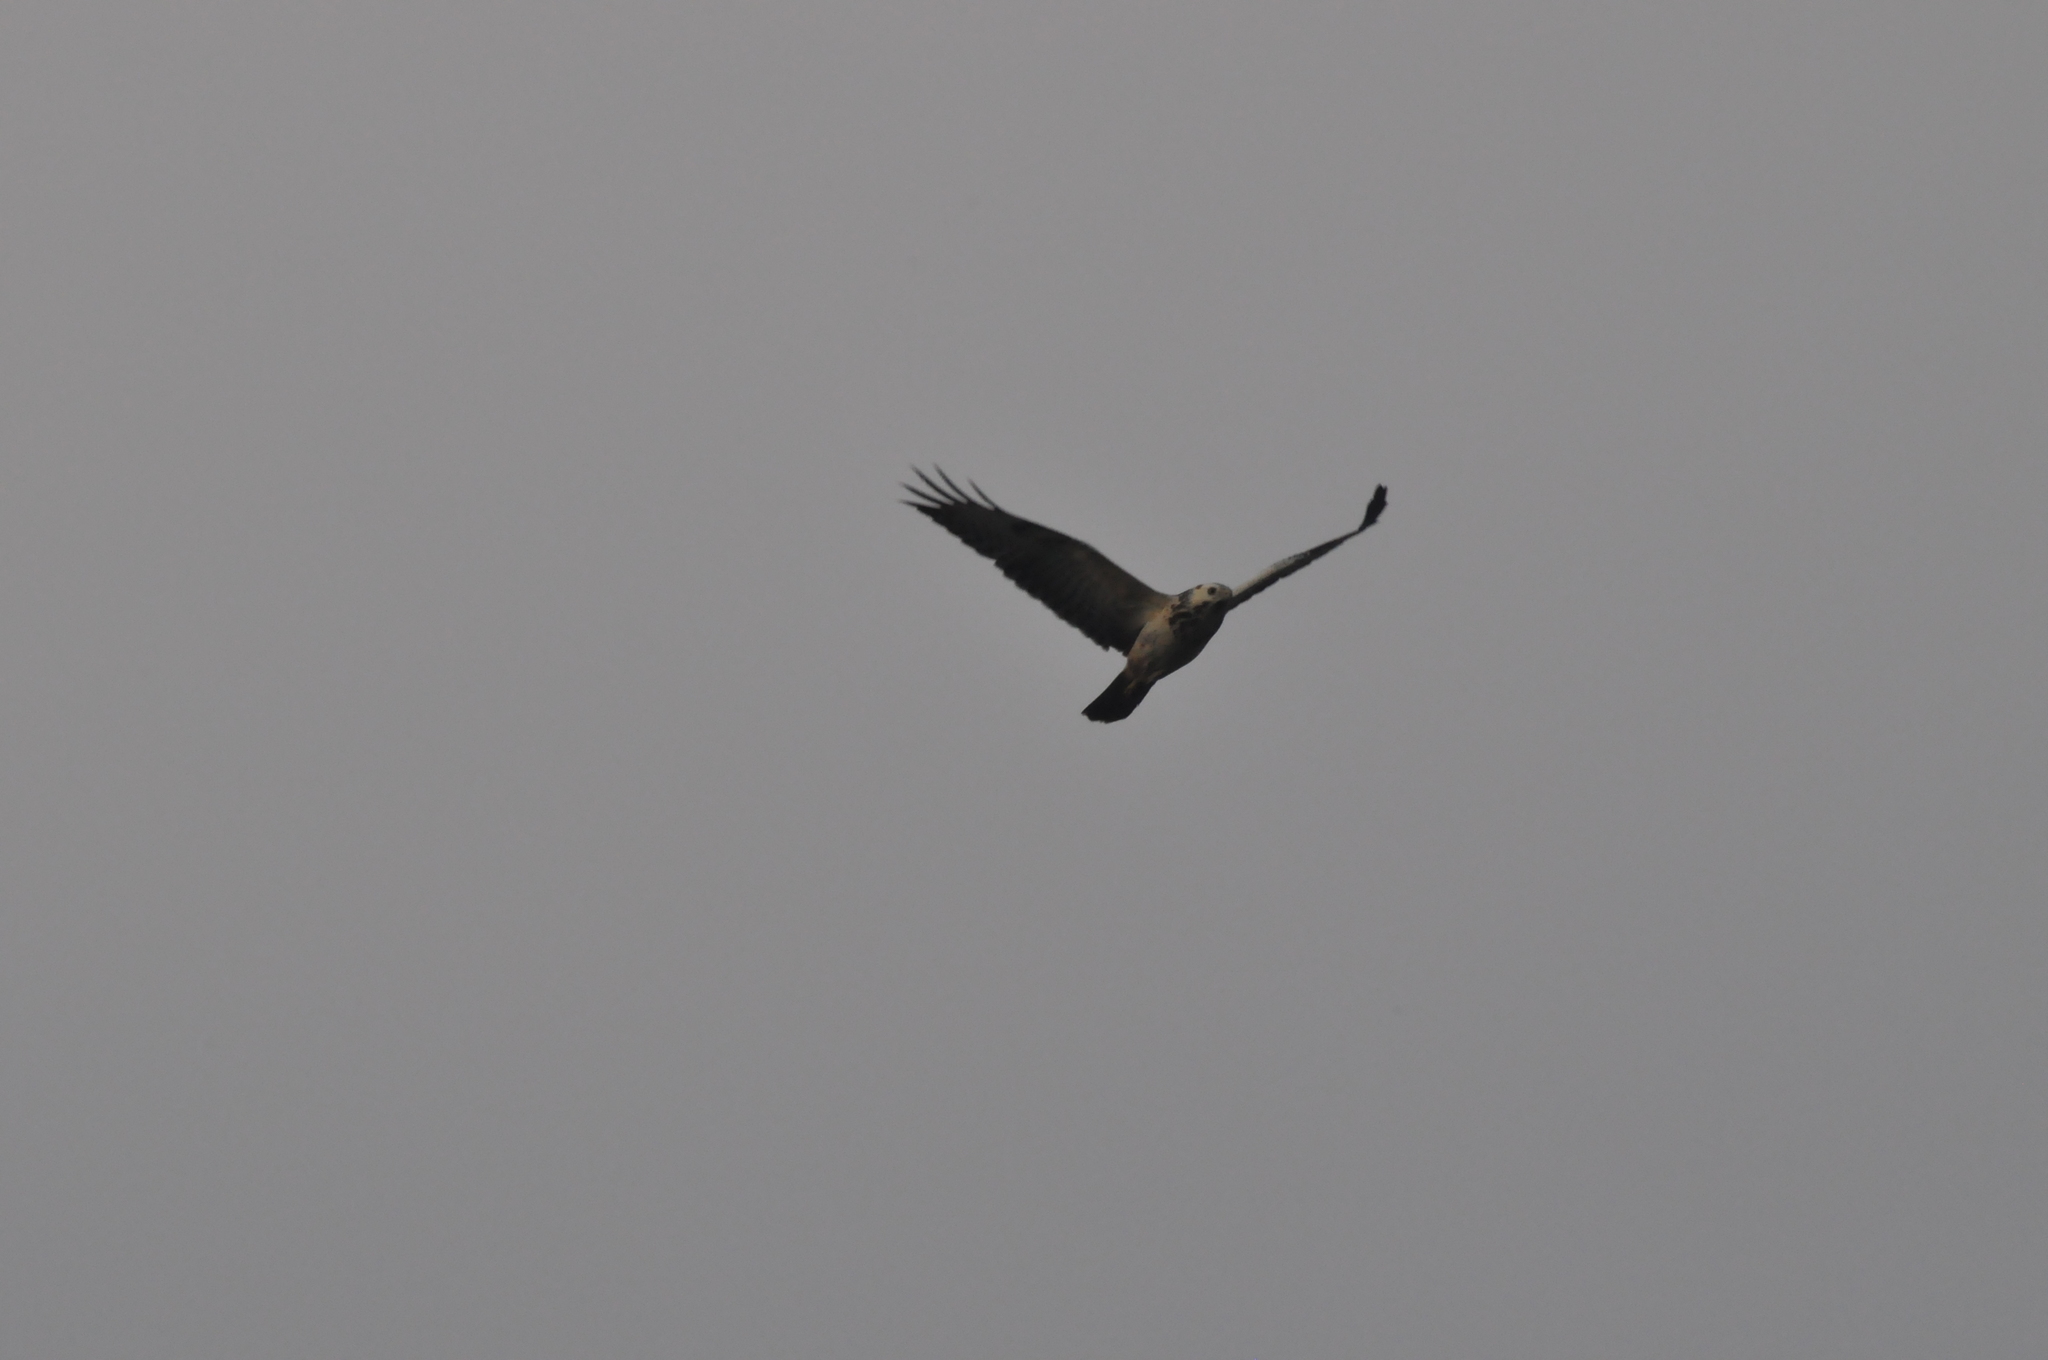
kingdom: Animalia
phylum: Chordata
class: Aves
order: Accipitriformes
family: Accipitridae
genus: Buteo
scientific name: Buteo buteo
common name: Common buzzard
